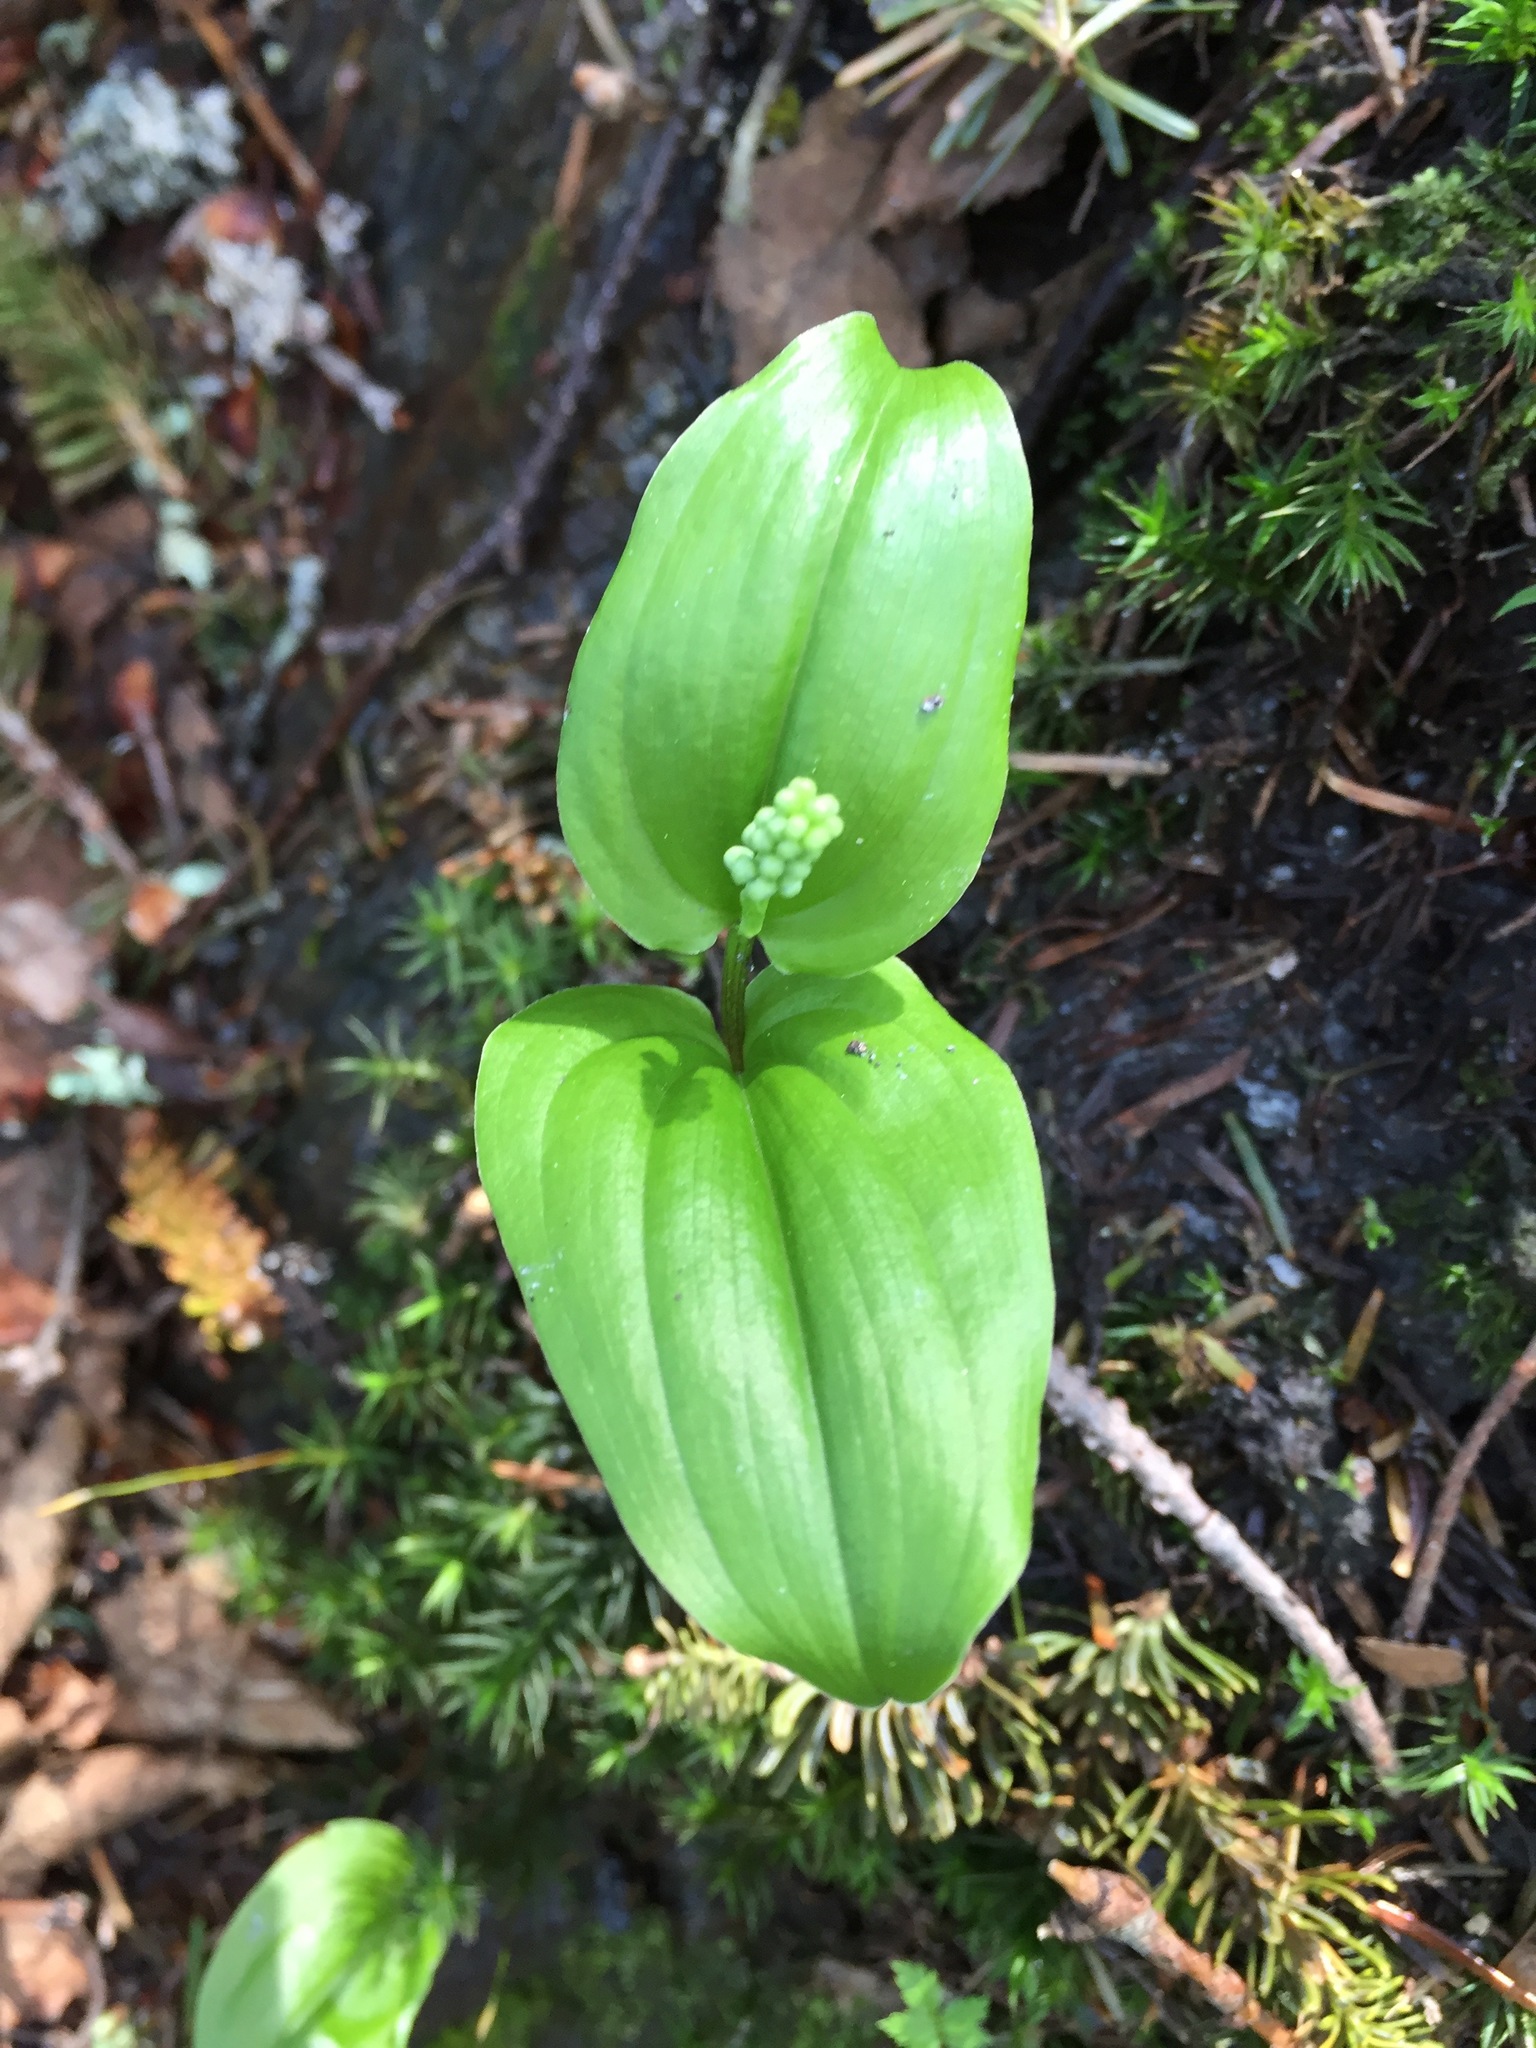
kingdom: Plantae
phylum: Tracheophyta
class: Liliopsida
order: Asparagales
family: Asparagaceae
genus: Maianthemum
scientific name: Maianthemum canadense
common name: False lily-of-the-valley
